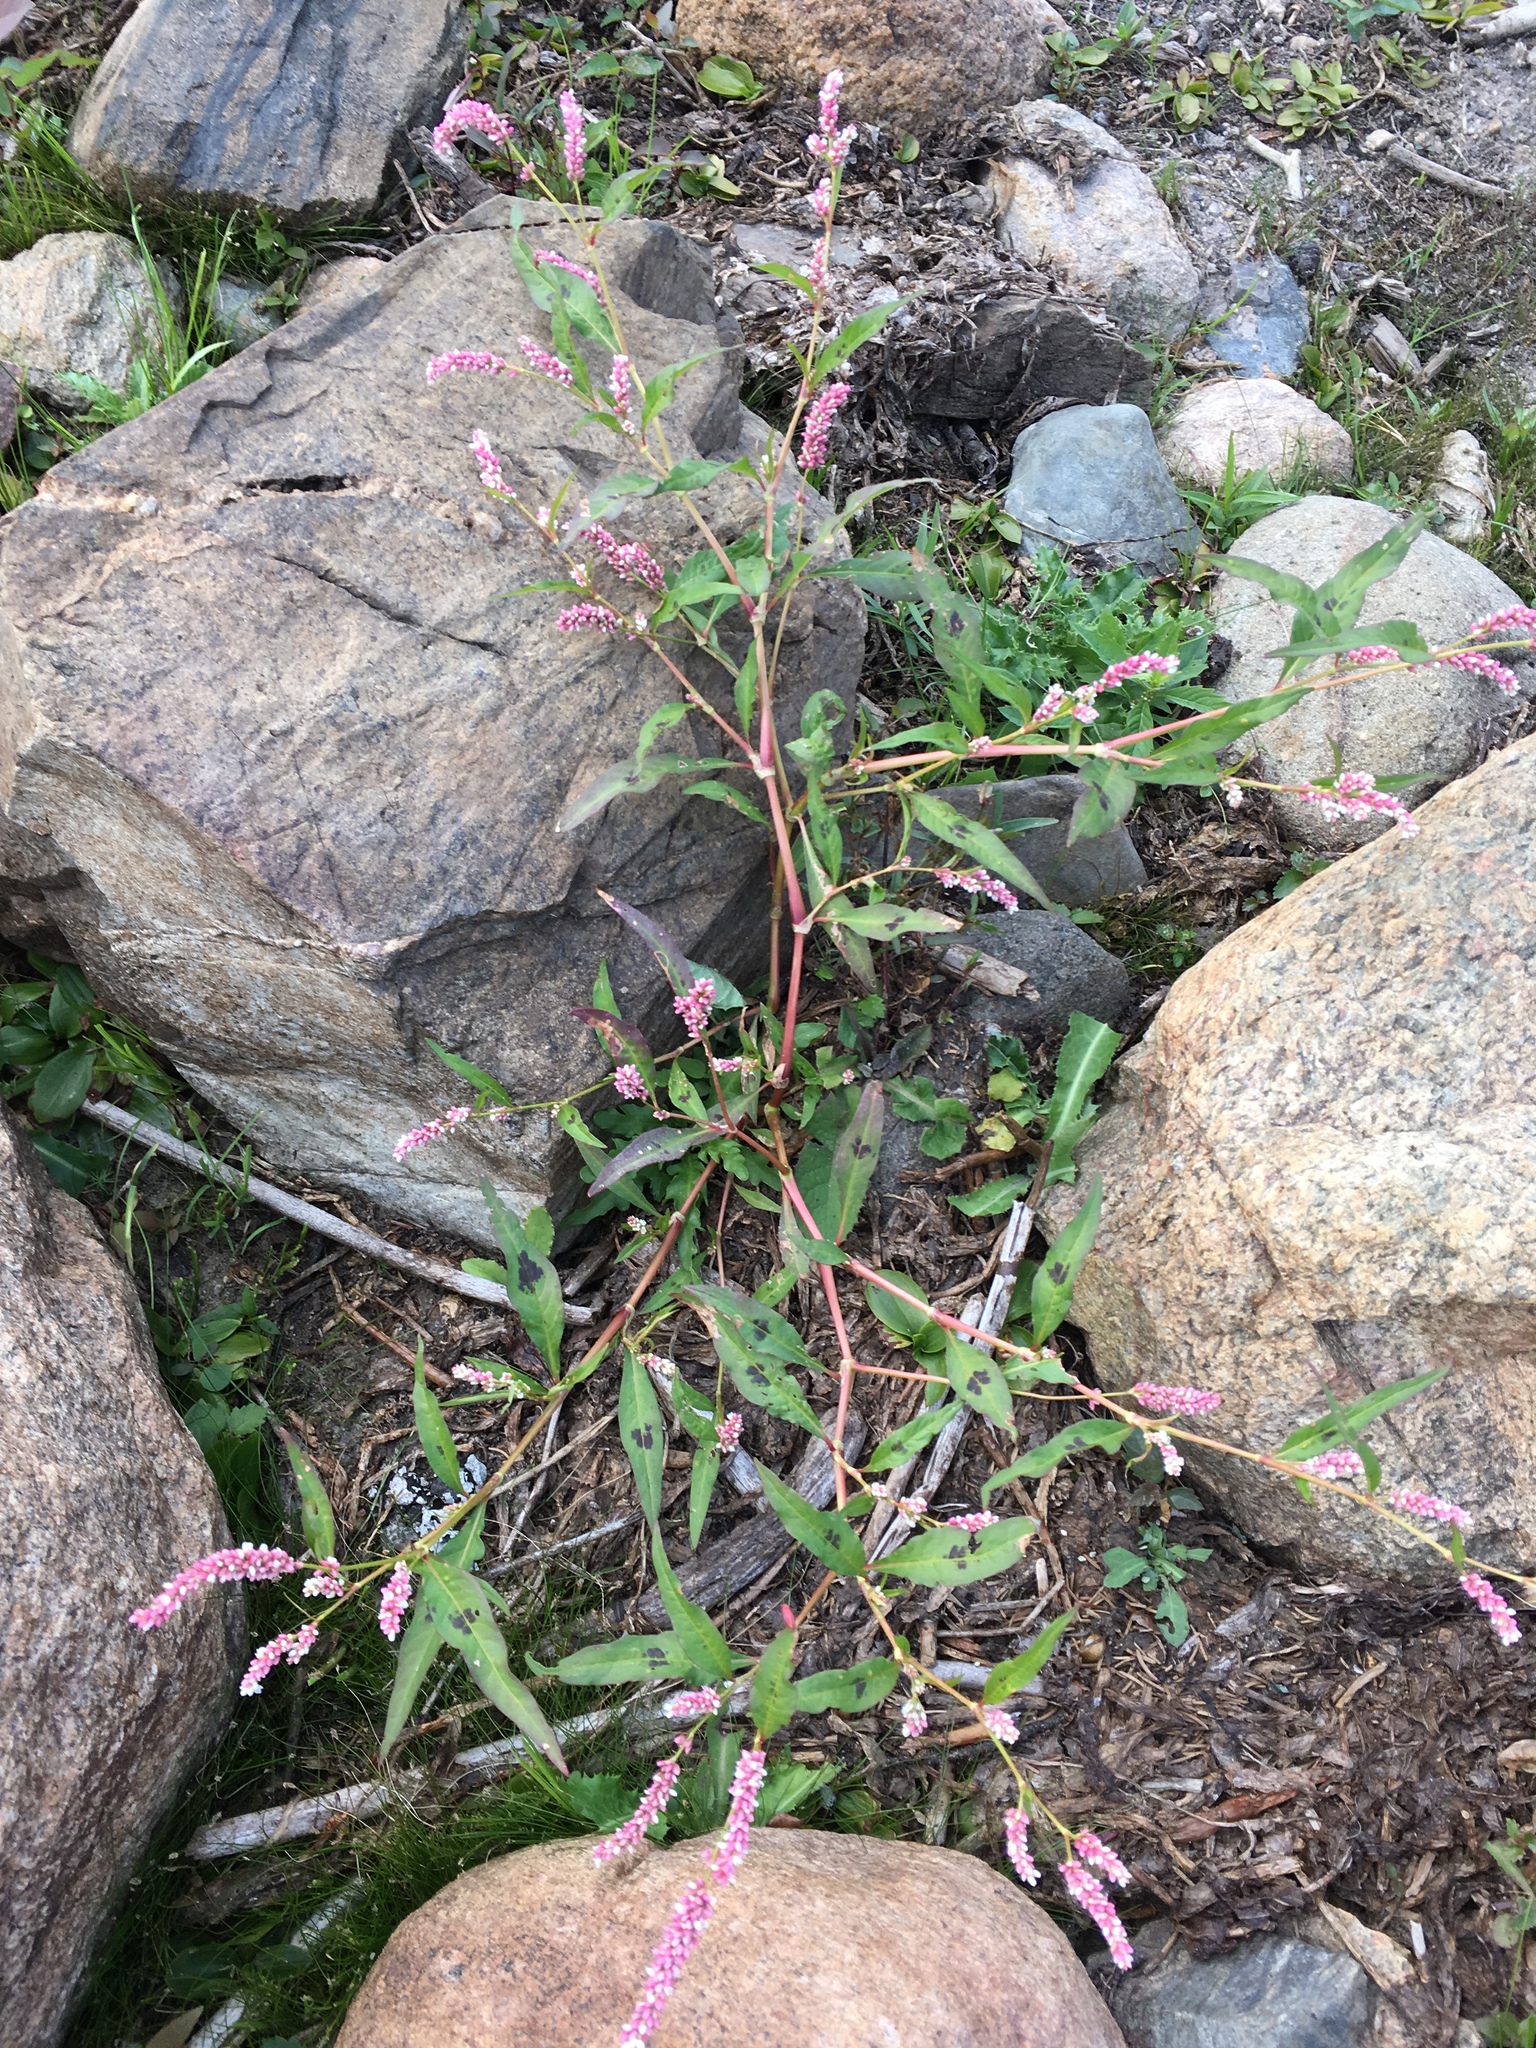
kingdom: Plantae
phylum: Tracheophyta
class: Magnoliopsida
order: Caryophyllales
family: Polygonaceae
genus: Persicaria
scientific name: Persicaria maculosa
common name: Redshank
